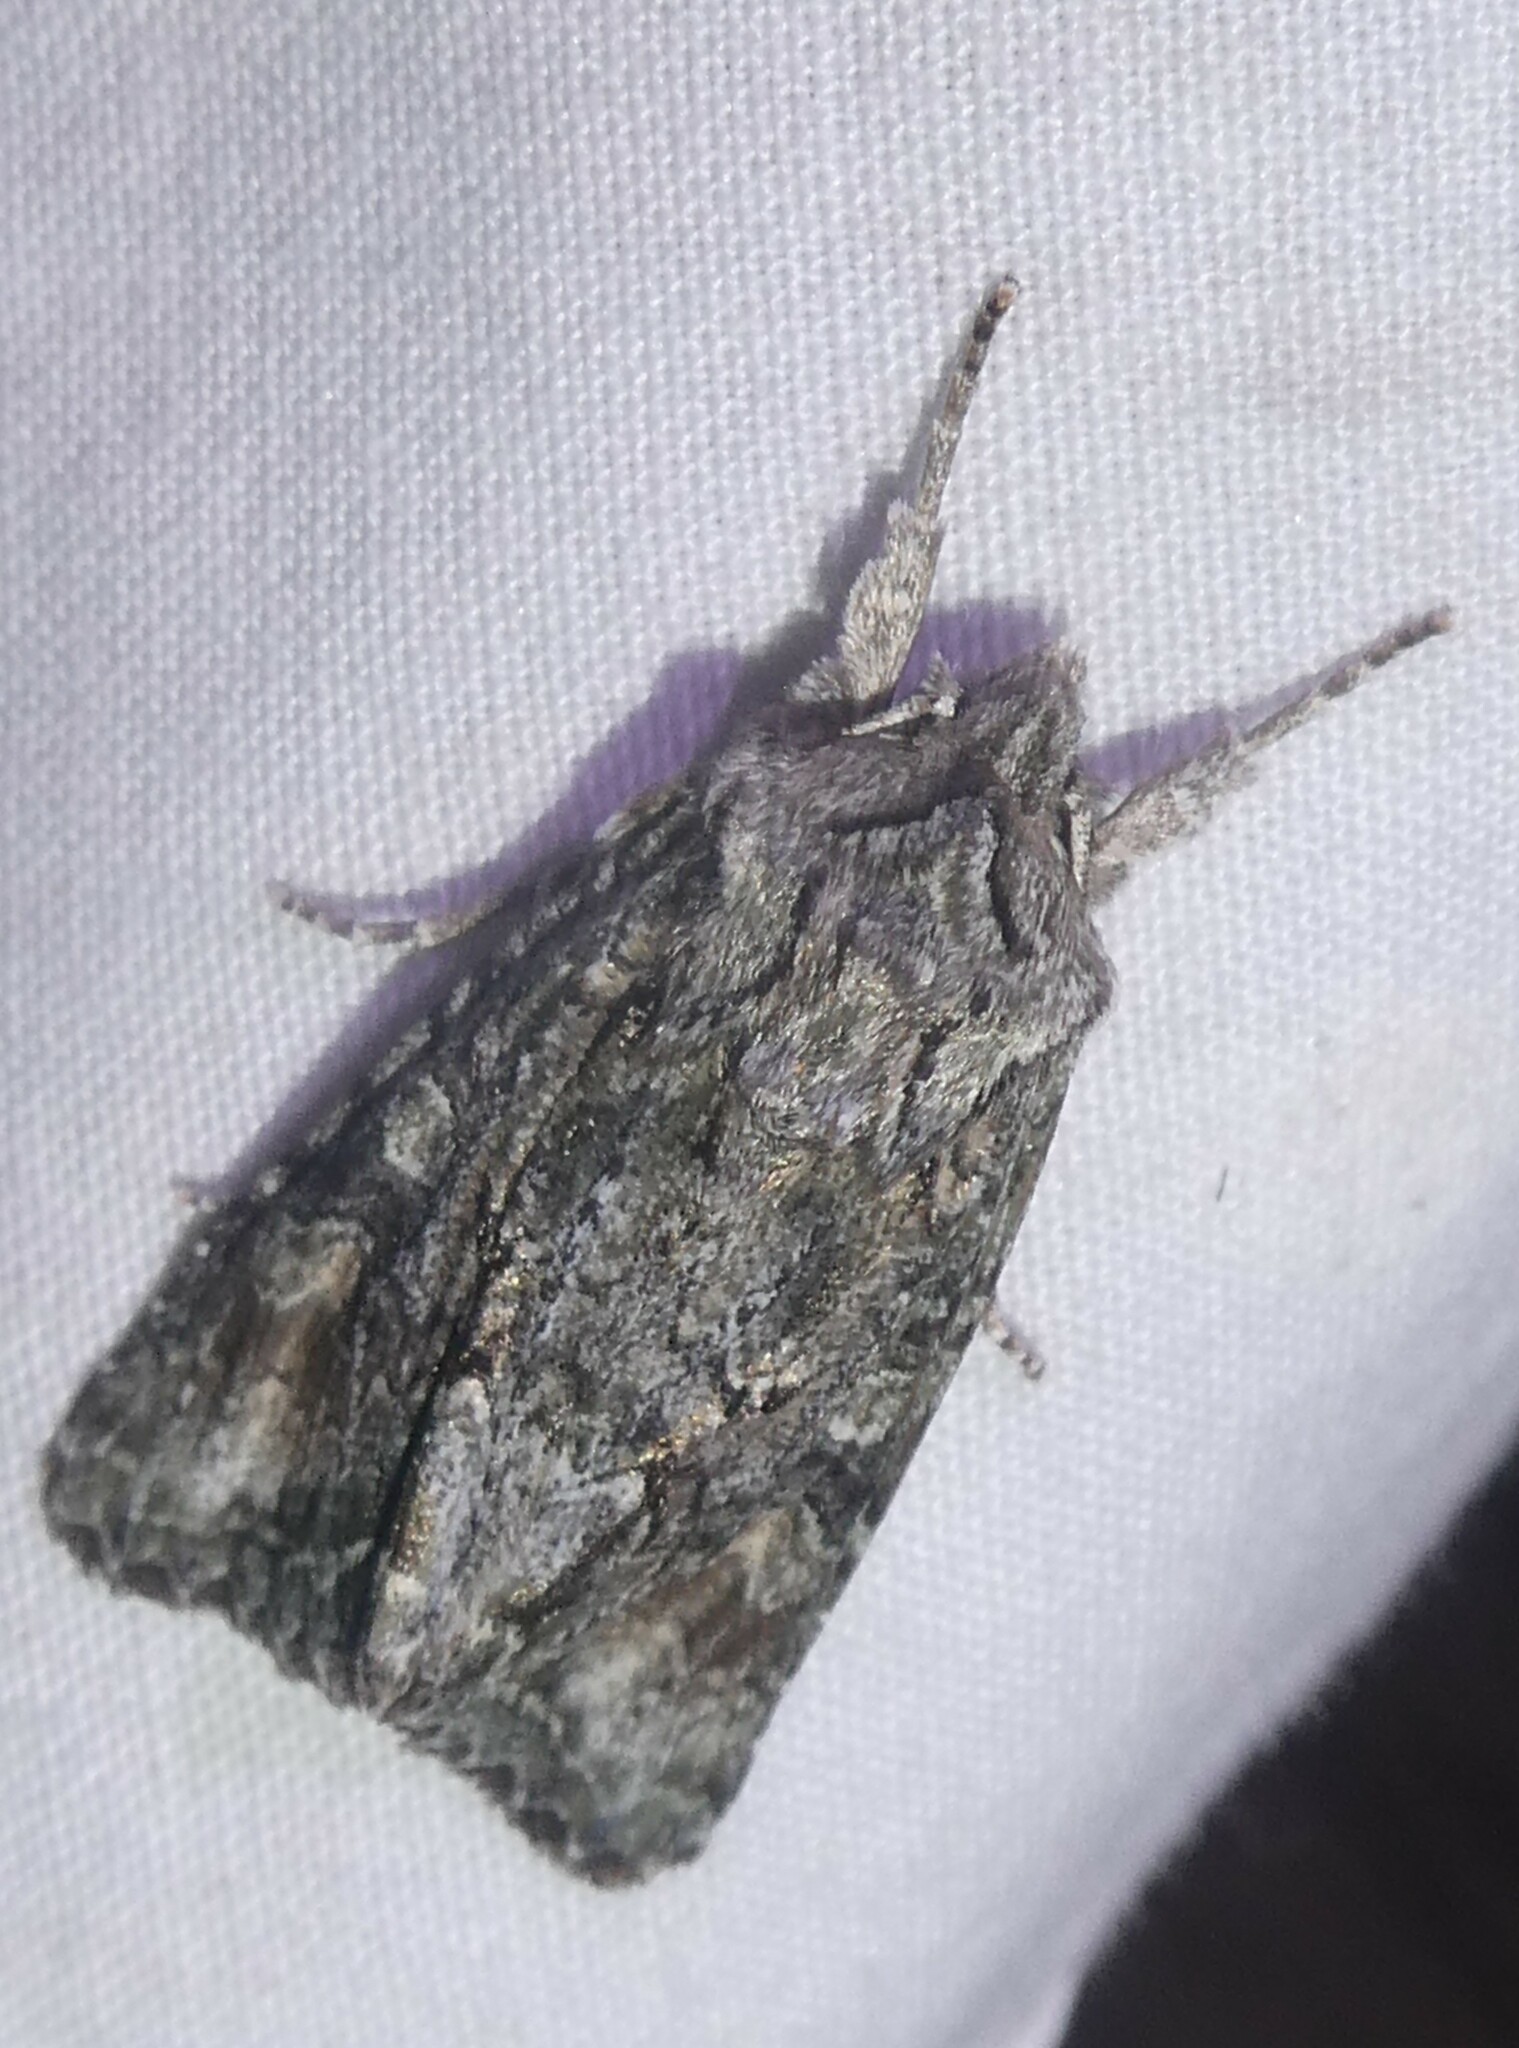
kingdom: Animalia
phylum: Arthropoda
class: Insecta
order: Lepidoptera
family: Noctuidae
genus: Ichneutica
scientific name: Ichneutica mutans
